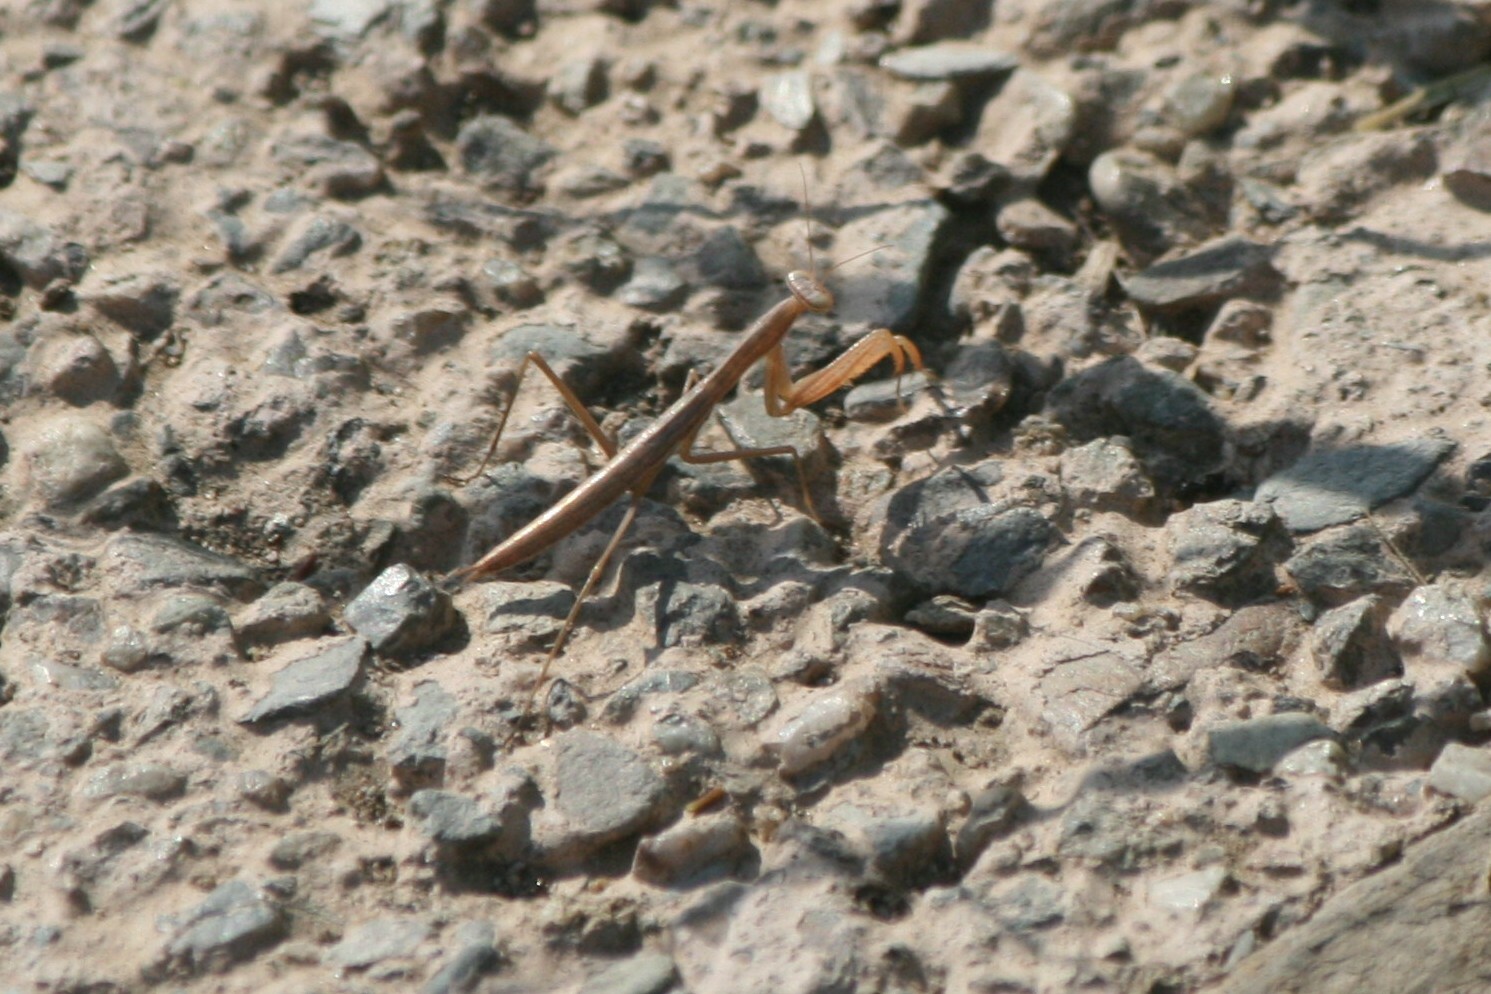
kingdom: Animalia
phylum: Arthropoda
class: Insecta
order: Mantodea
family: Mantidae
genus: Mantis
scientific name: Mantis religiosa
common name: Praying mantis
